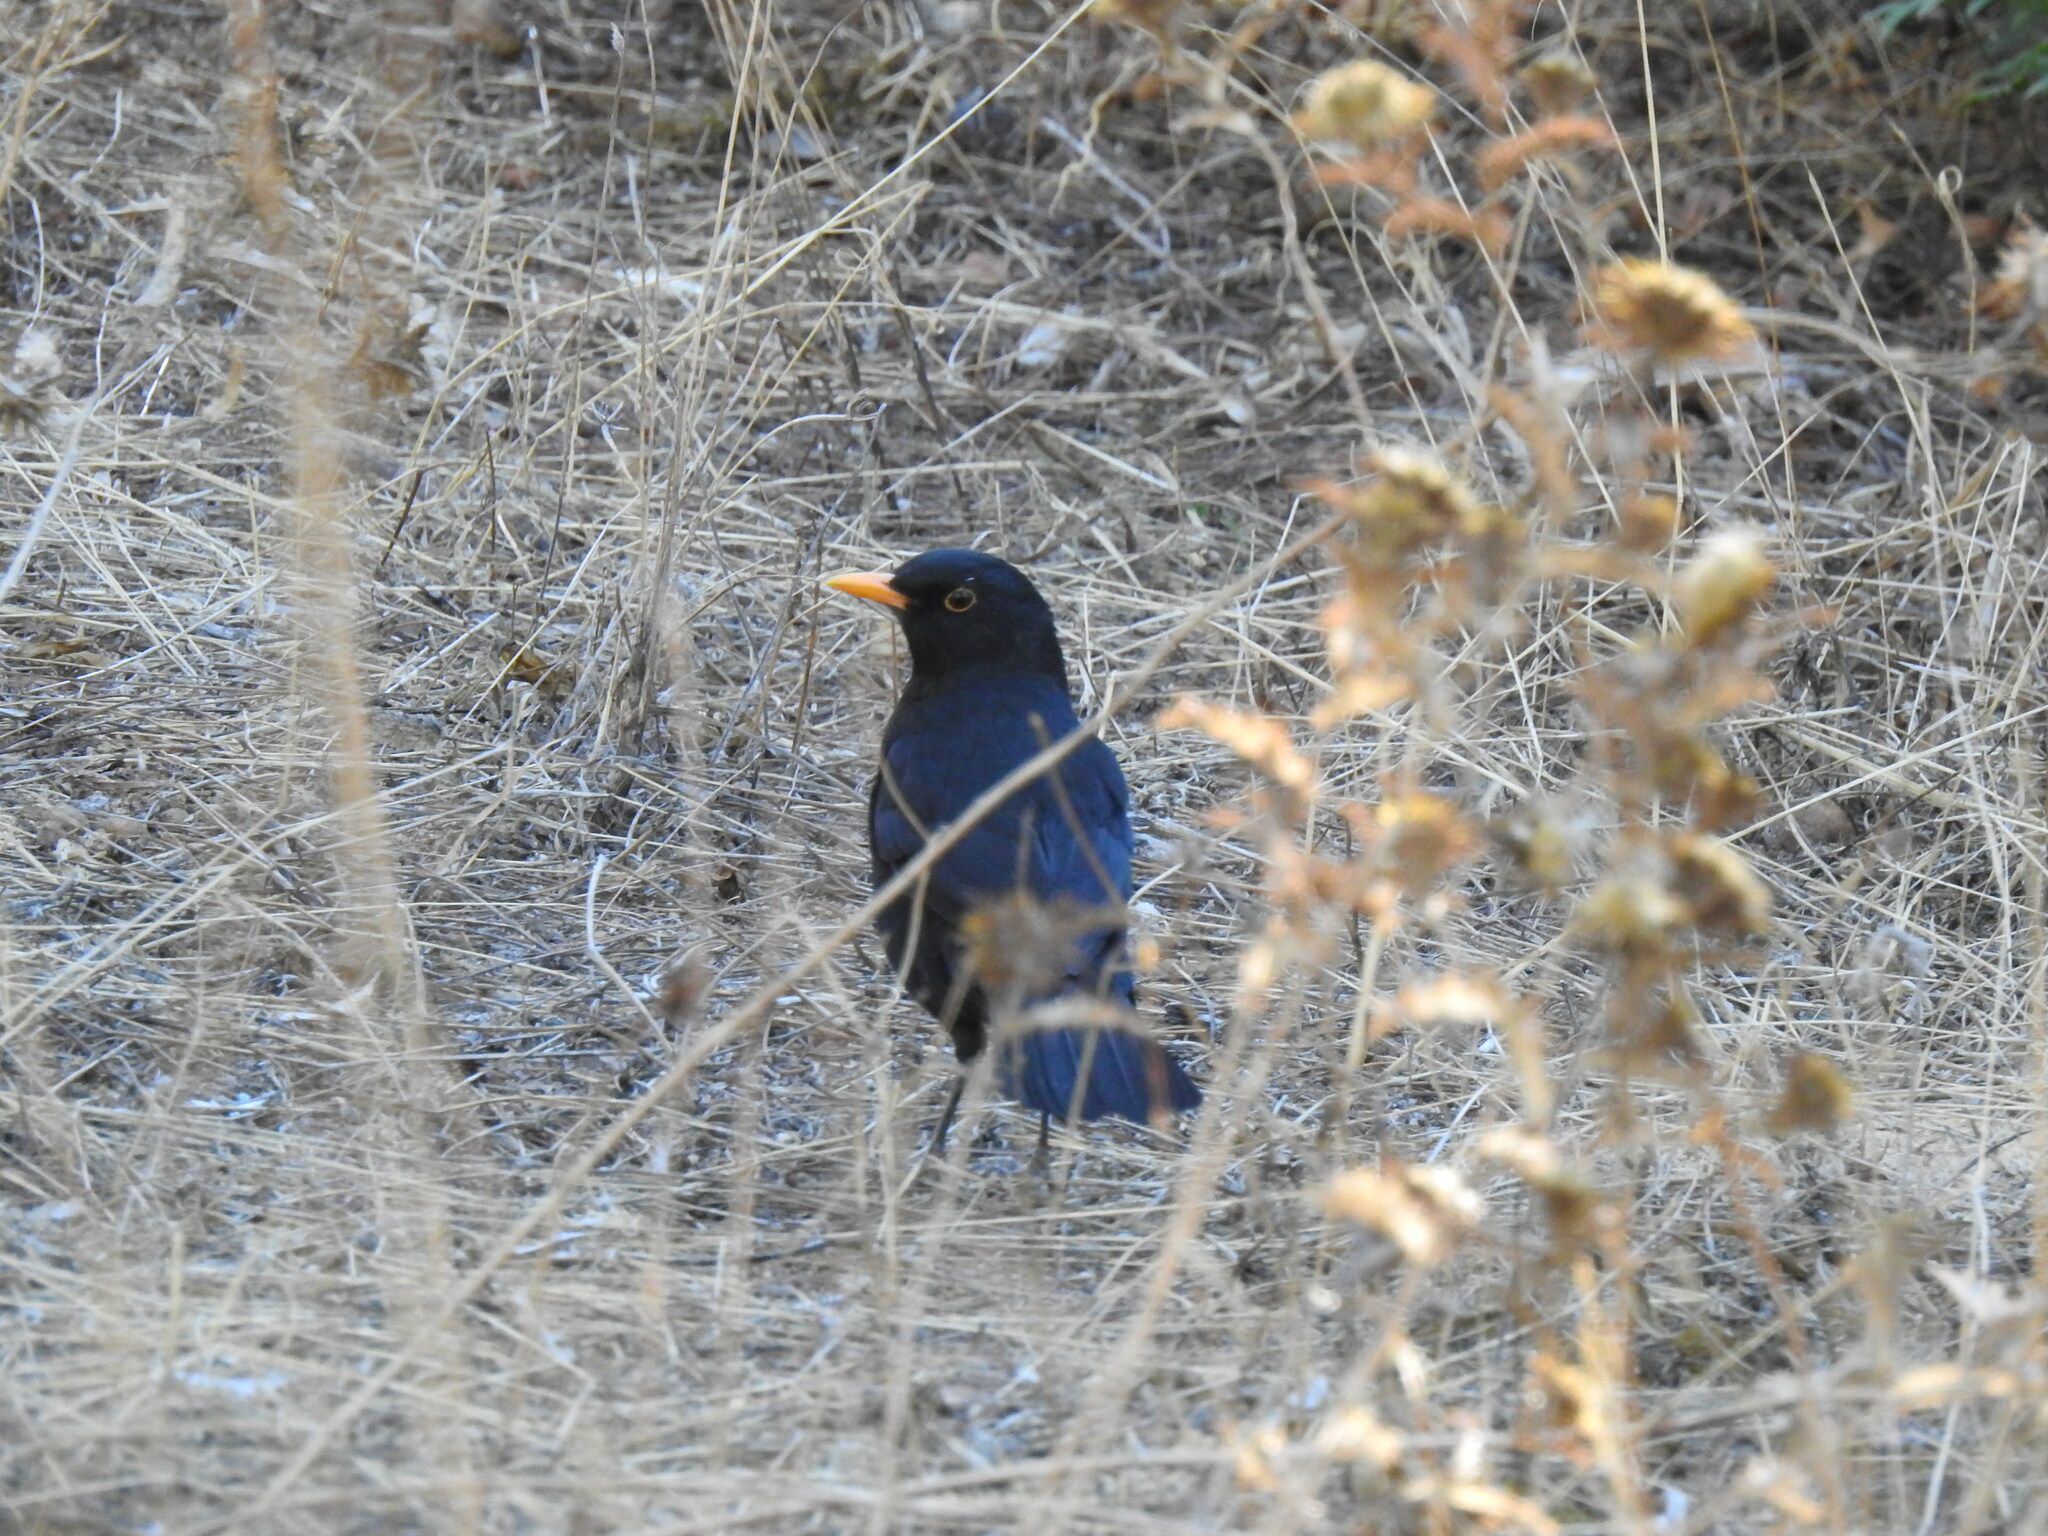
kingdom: Animalia
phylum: Chordata
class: Aves
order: Passeriformes
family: Turdidae
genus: Turdus
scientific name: Turdus merula
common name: Common blackbird
